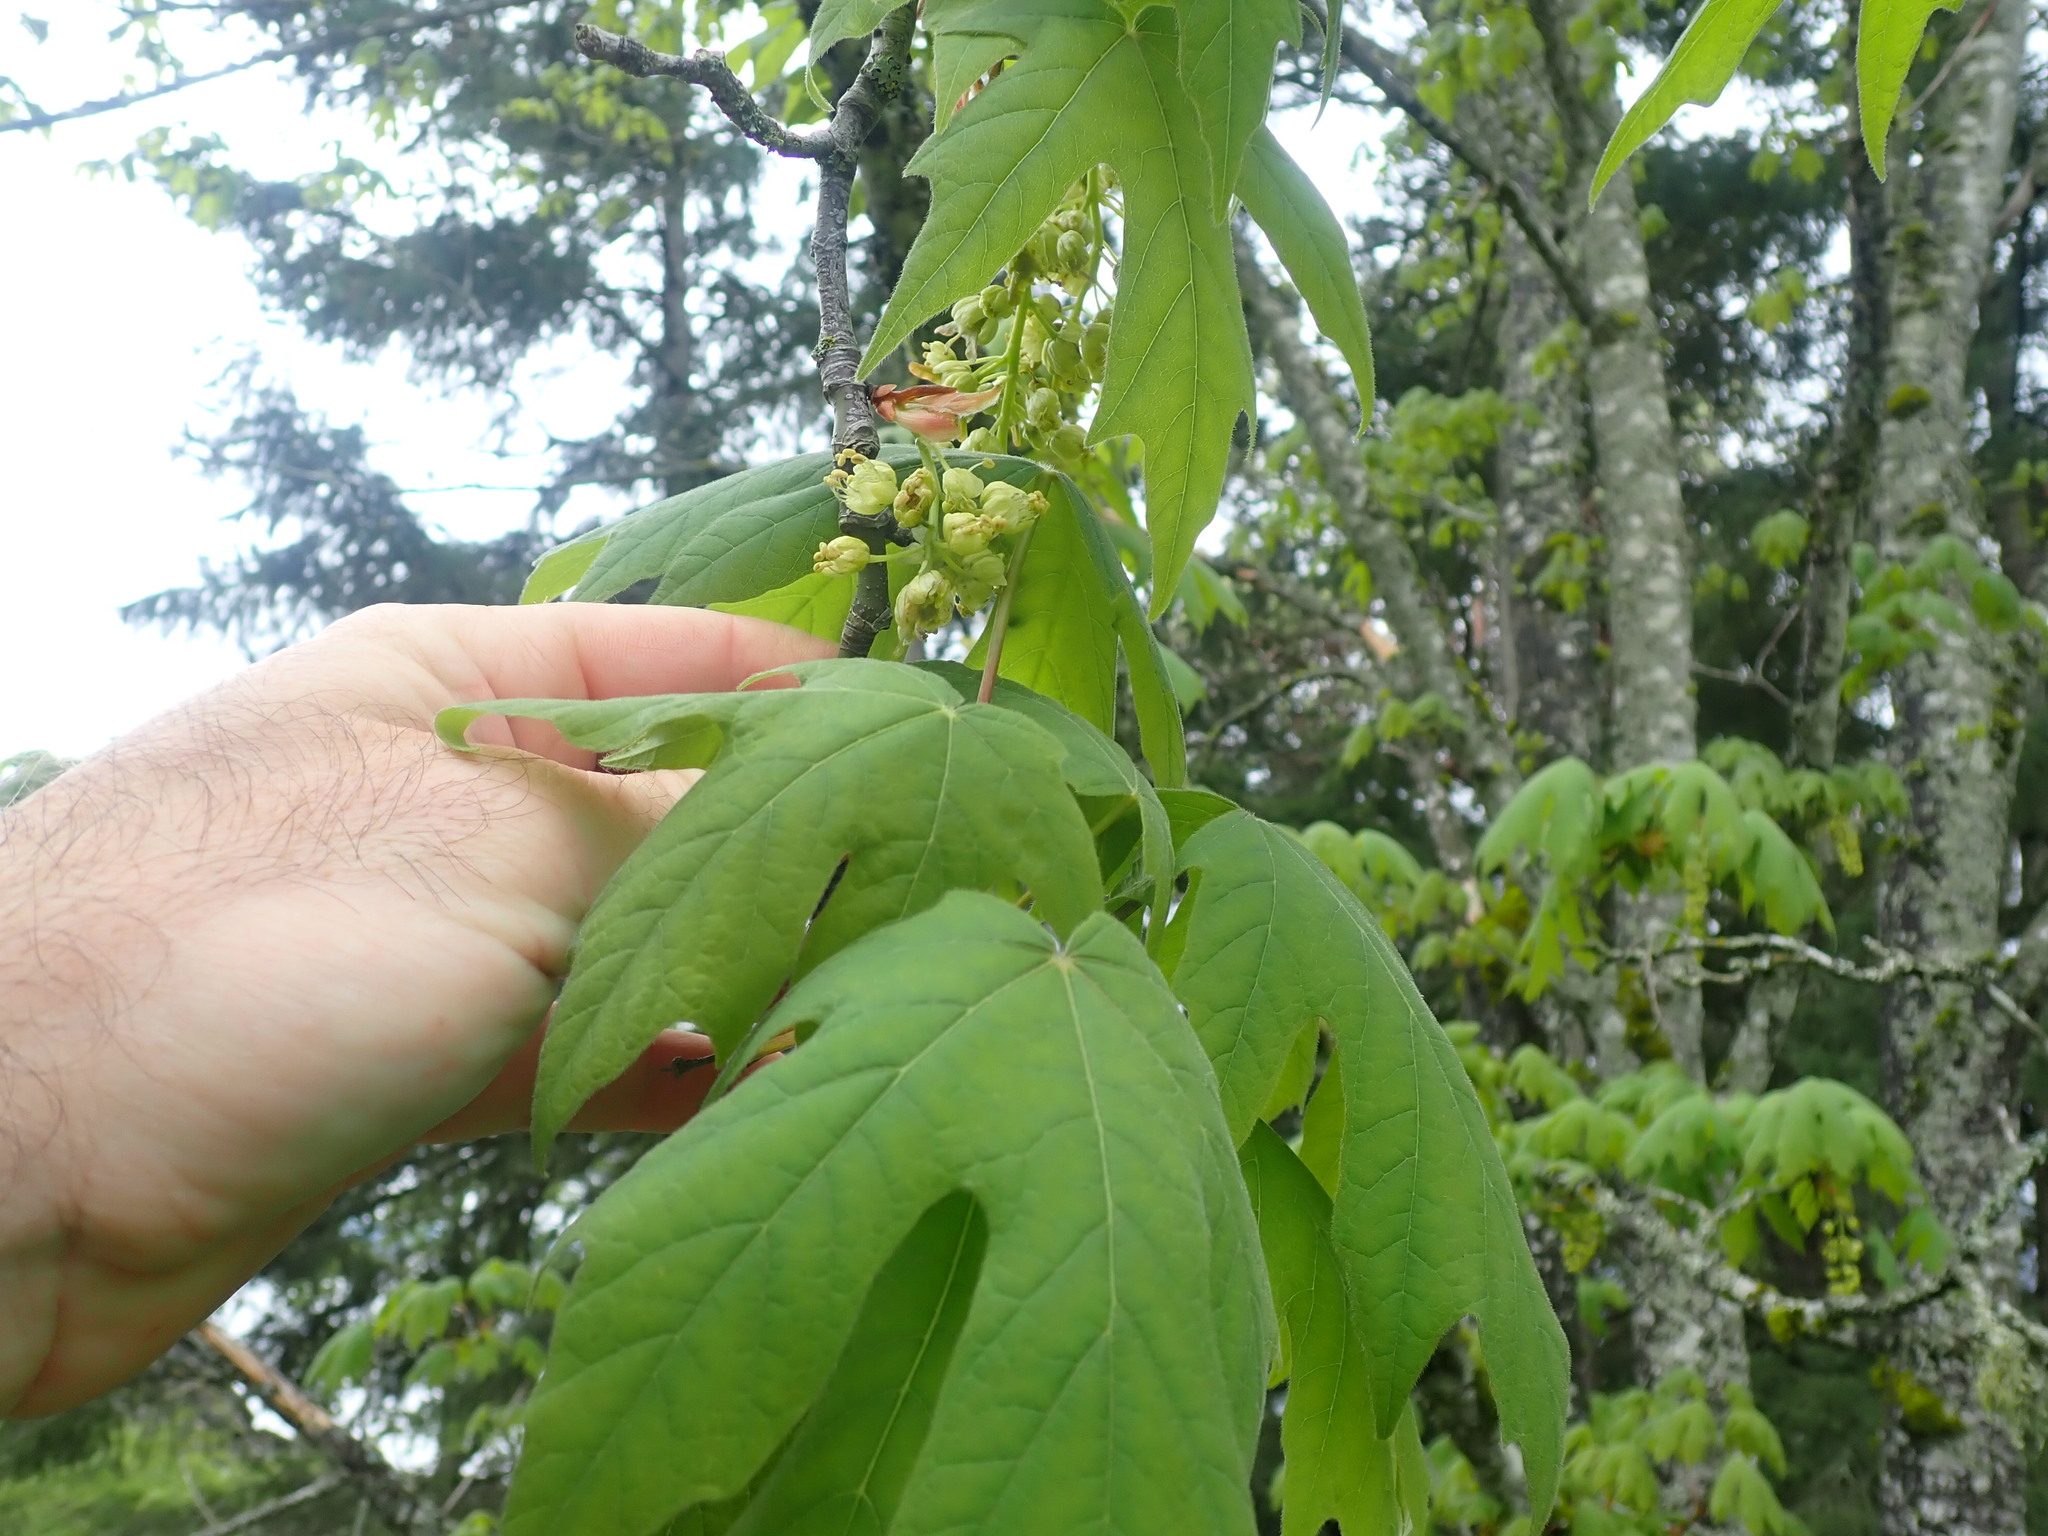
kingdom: Plantae
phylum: Tracheophyta
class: Magnoliopsida
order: Sapindales
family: Sapindaceae
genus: Acer
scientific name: Acer macrophyllum
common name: Oregon maple
